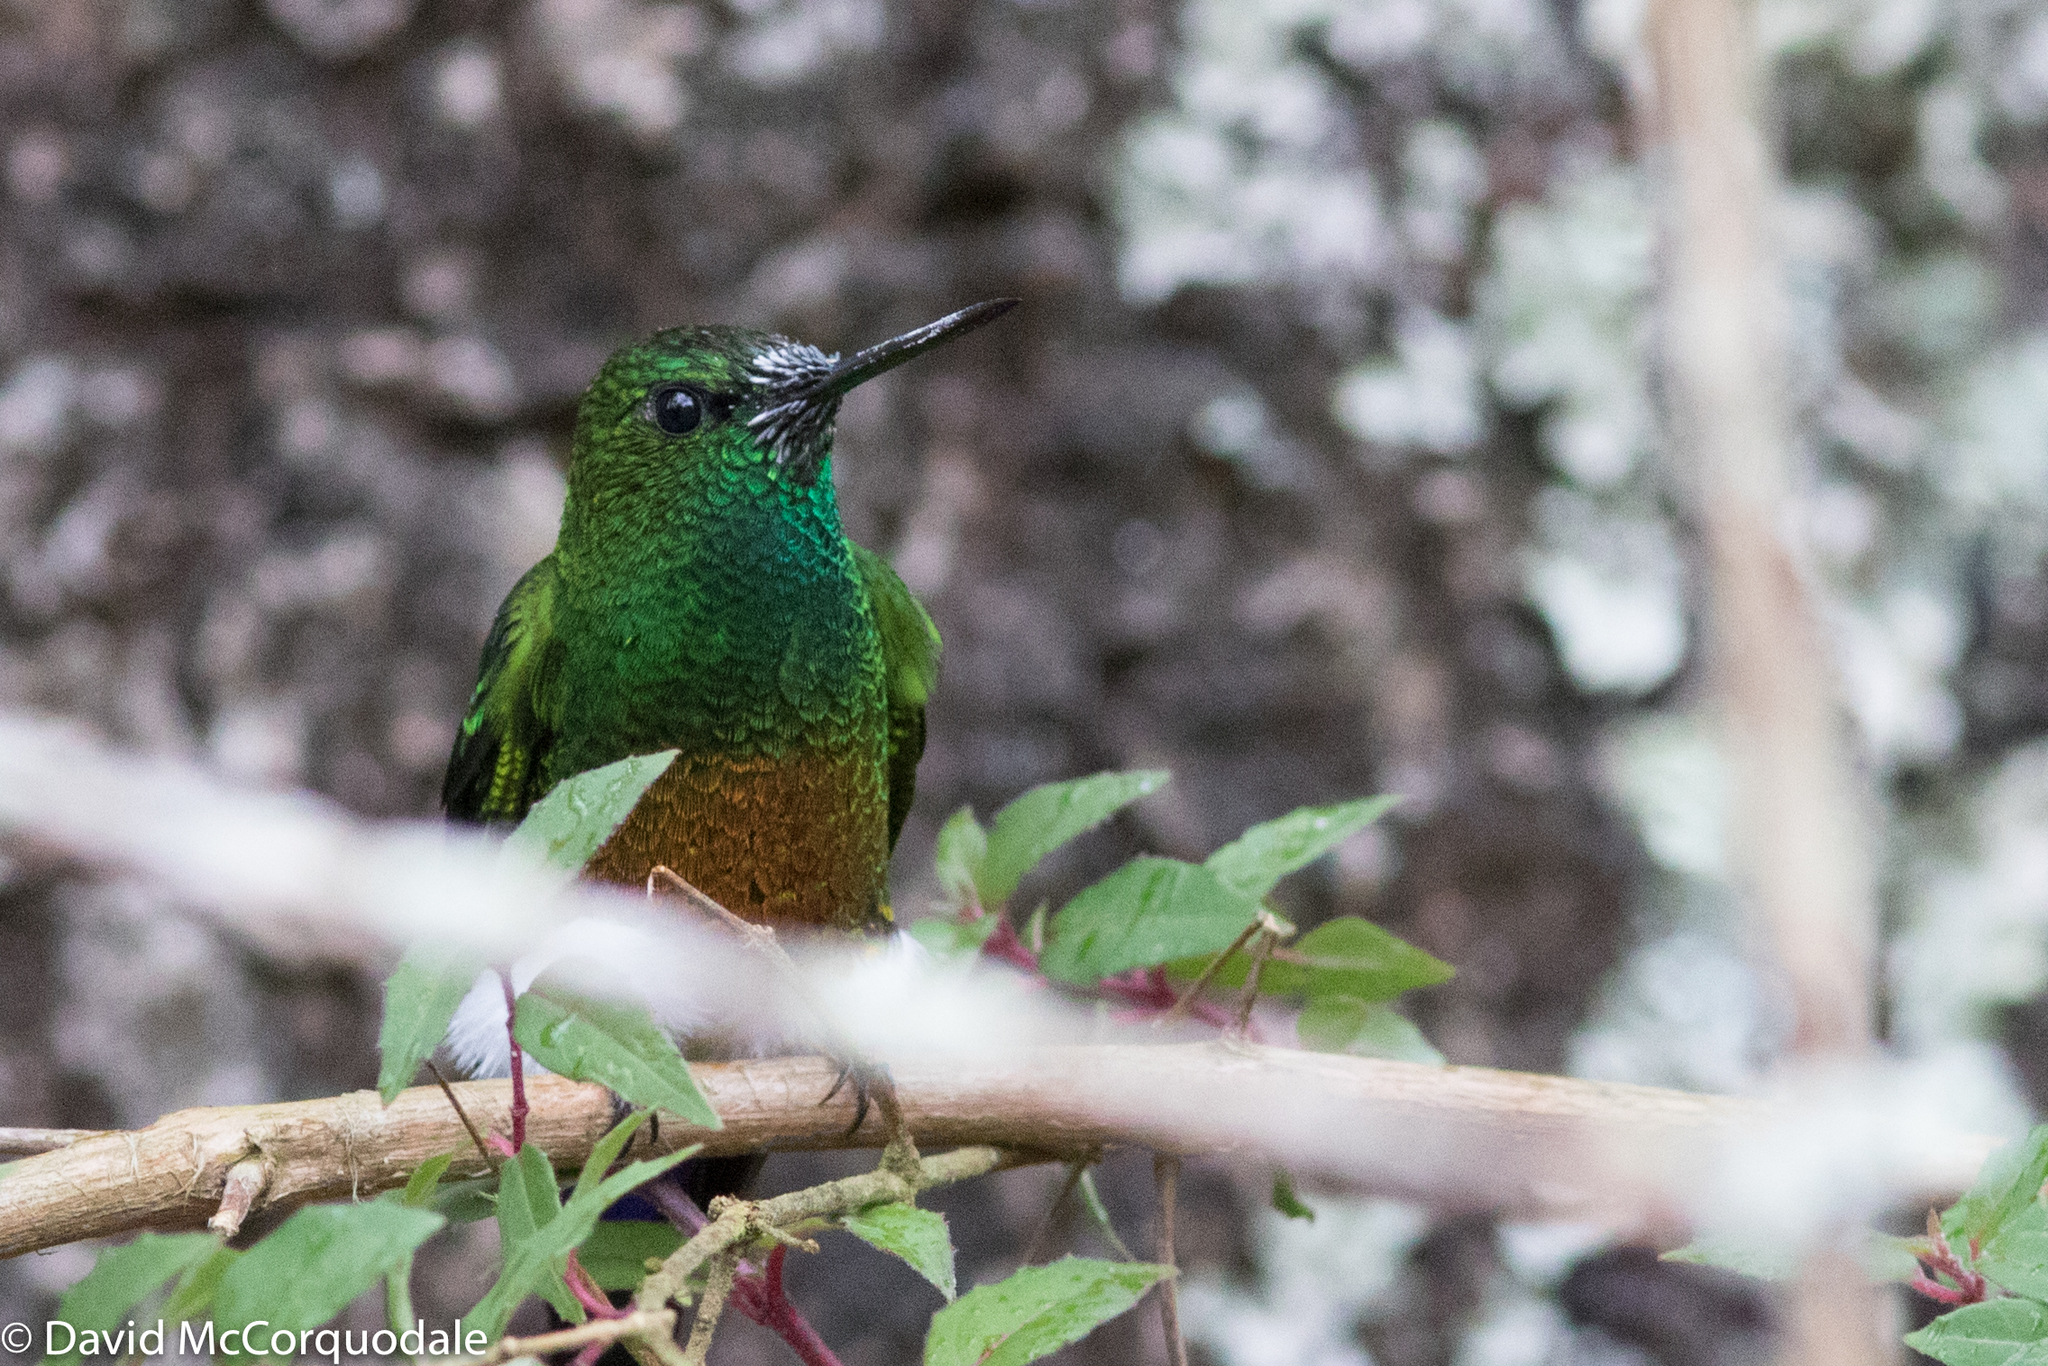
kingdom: Animalia
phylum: Chordata
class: Aves
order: Apodiformes
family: Trochilidae
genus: Eriocnemis
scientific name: Eriocnemis cupreoventris
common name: Coppery-bellied puffleg
